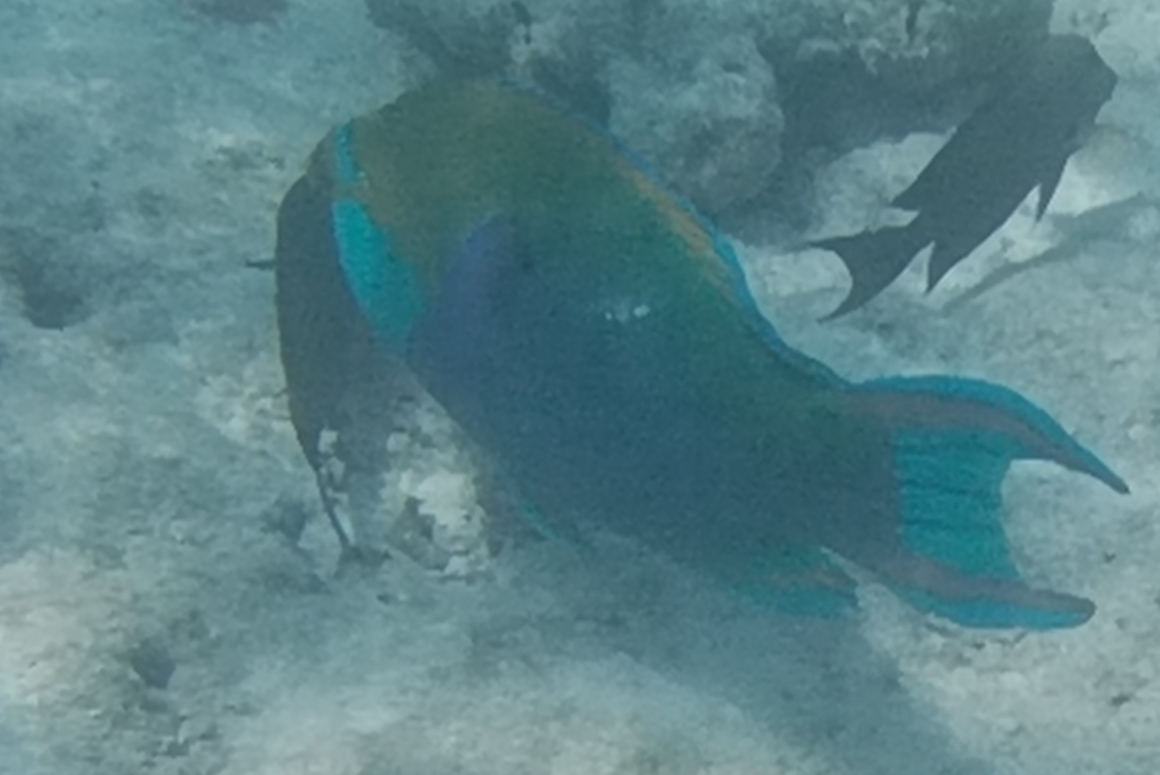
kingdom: Animalia
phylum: Chordata
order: Perciformes
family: Scaridae
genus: Scarus
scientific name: Scarus prasiognathos
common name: Singapore parrotfish
